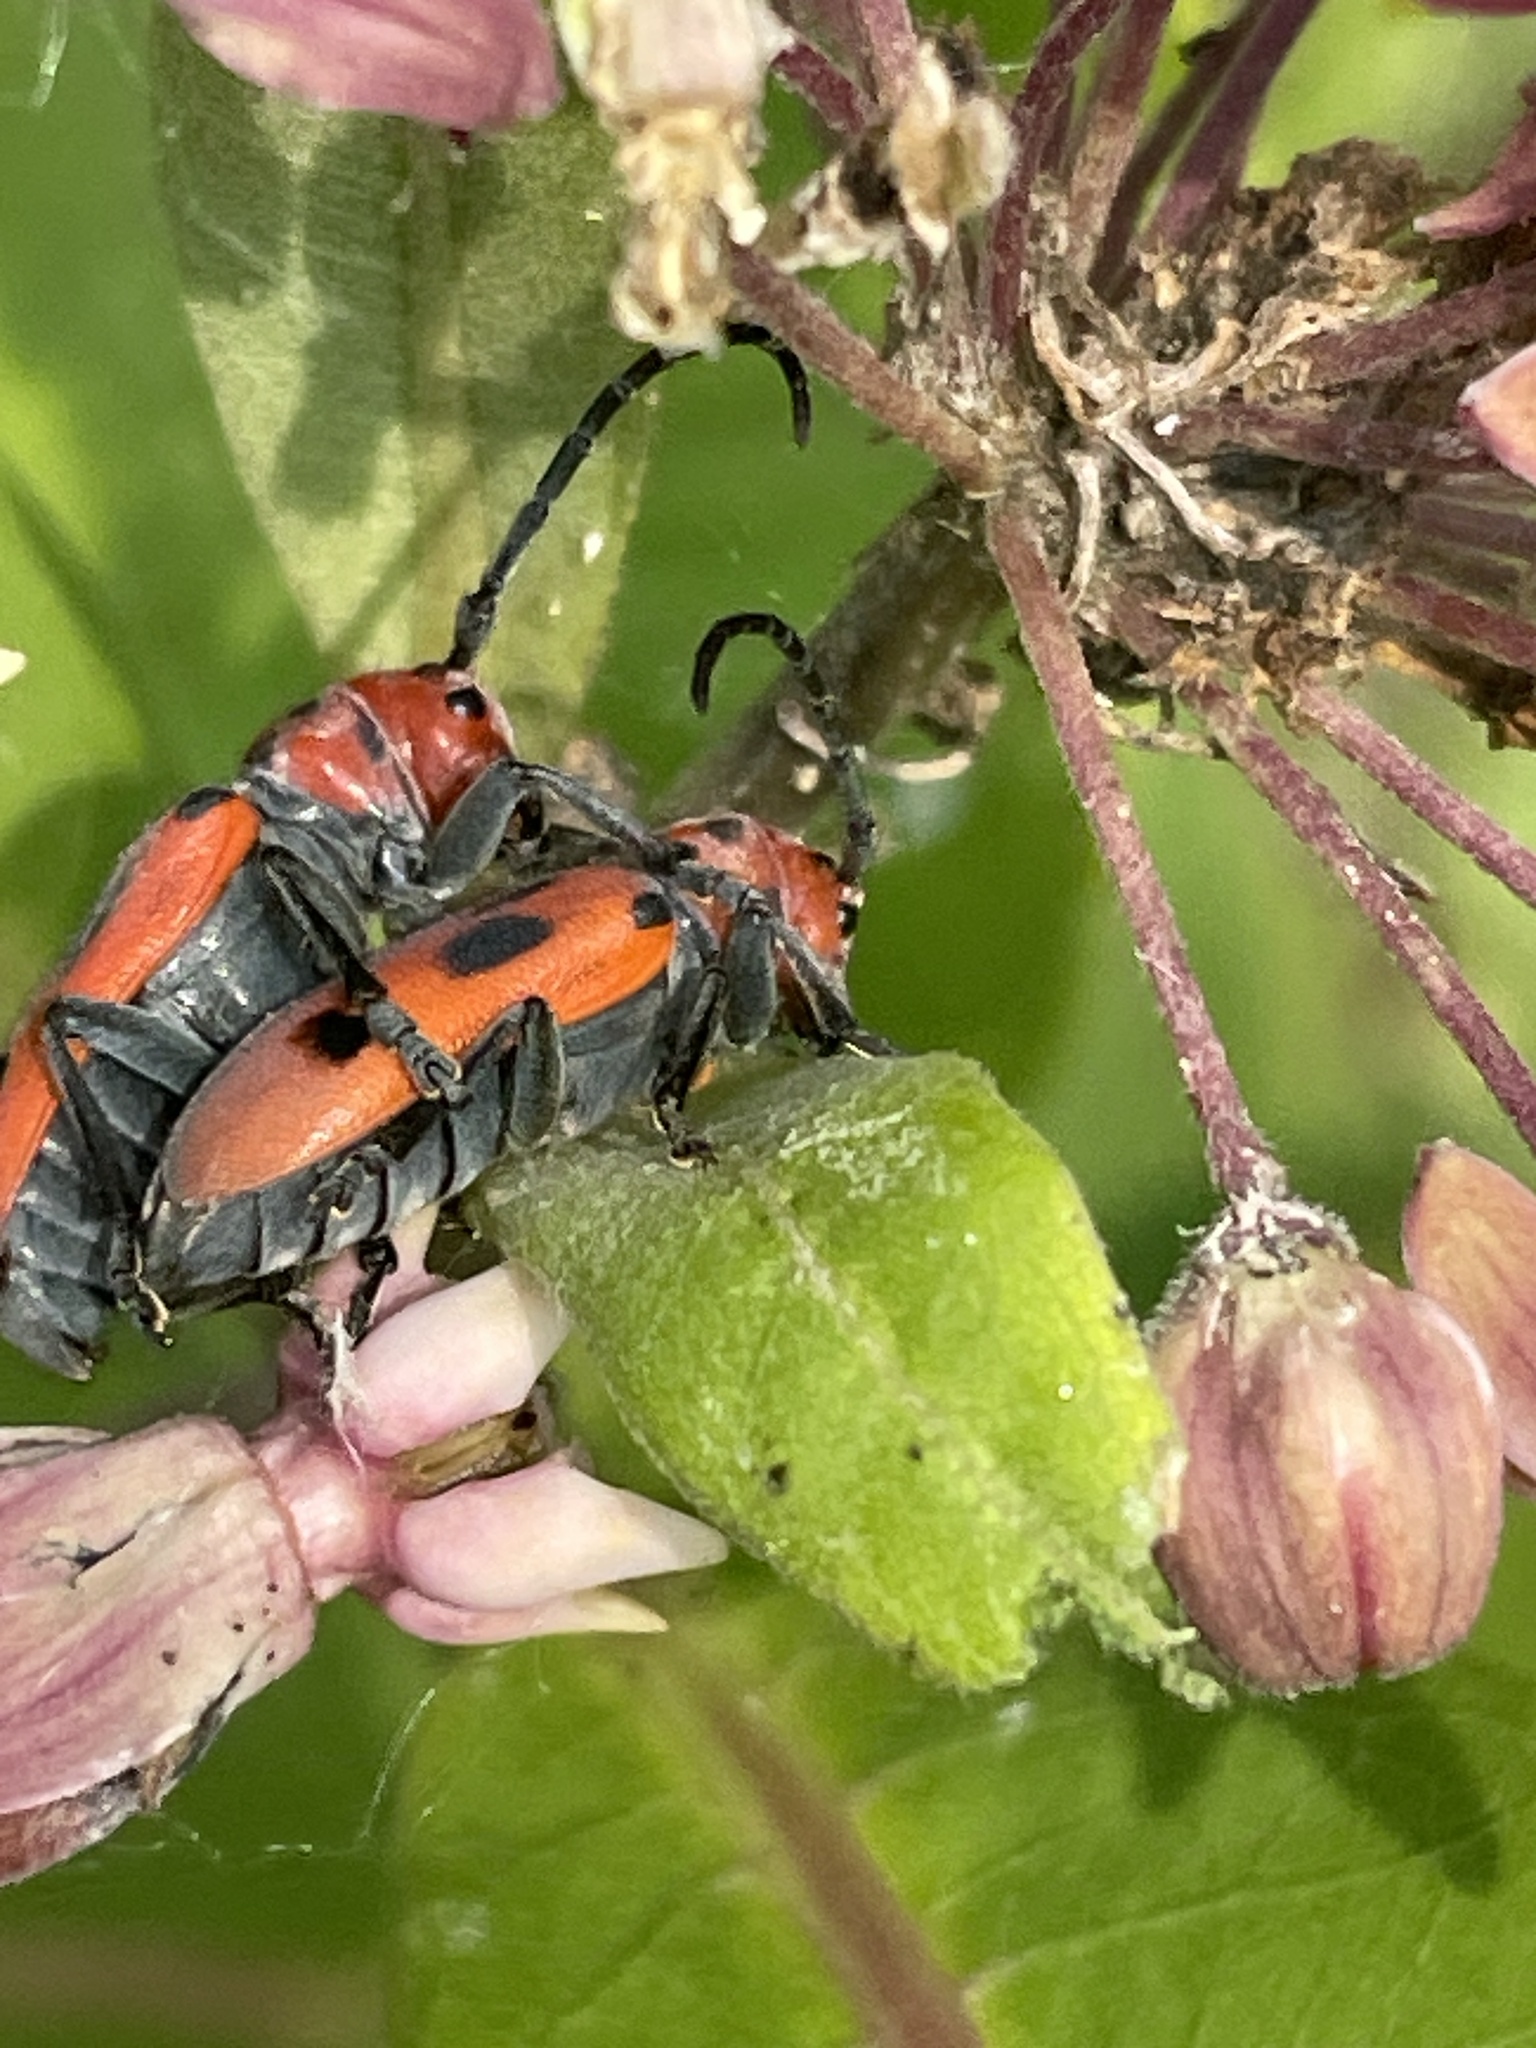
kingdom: Animalia
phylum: Arthropoda
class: Insecta
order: Coleoptera
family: Cerambycidae
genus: Tetraopes
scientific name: Tetraopes tetrophthalmus
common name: Red milkweed beetle
